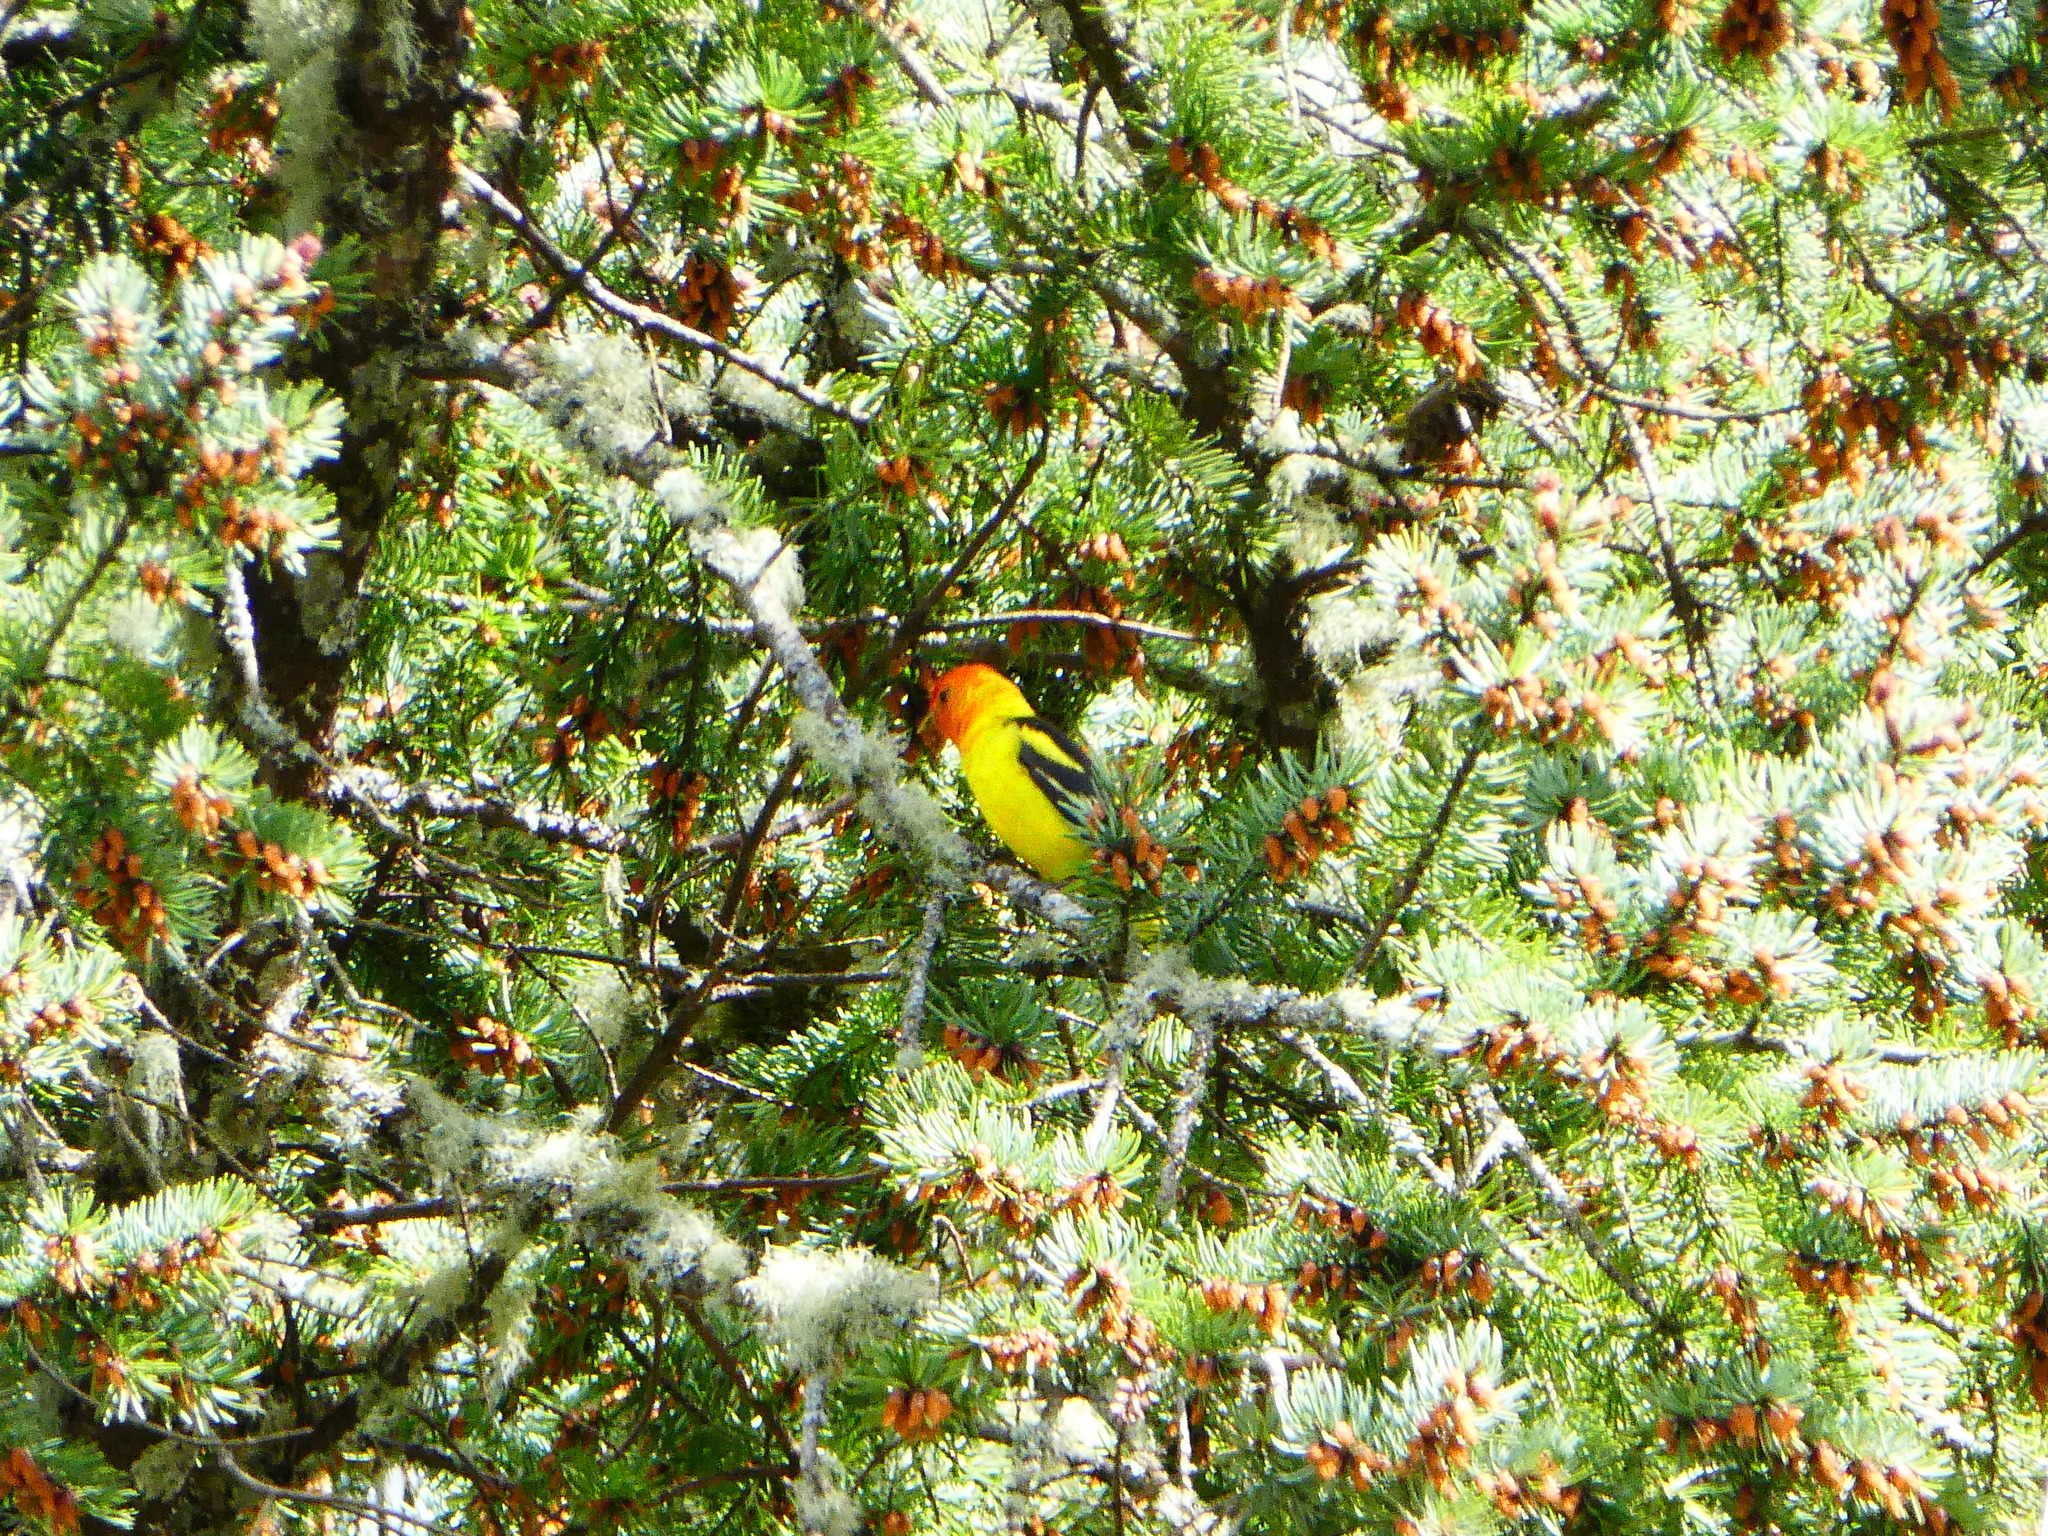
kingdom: Animalia
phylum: Chordata
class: Aves
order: Passeriformes
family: Cardinalidae
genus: Piranga
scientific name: Piranga ludoviciana
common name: Western tanager
